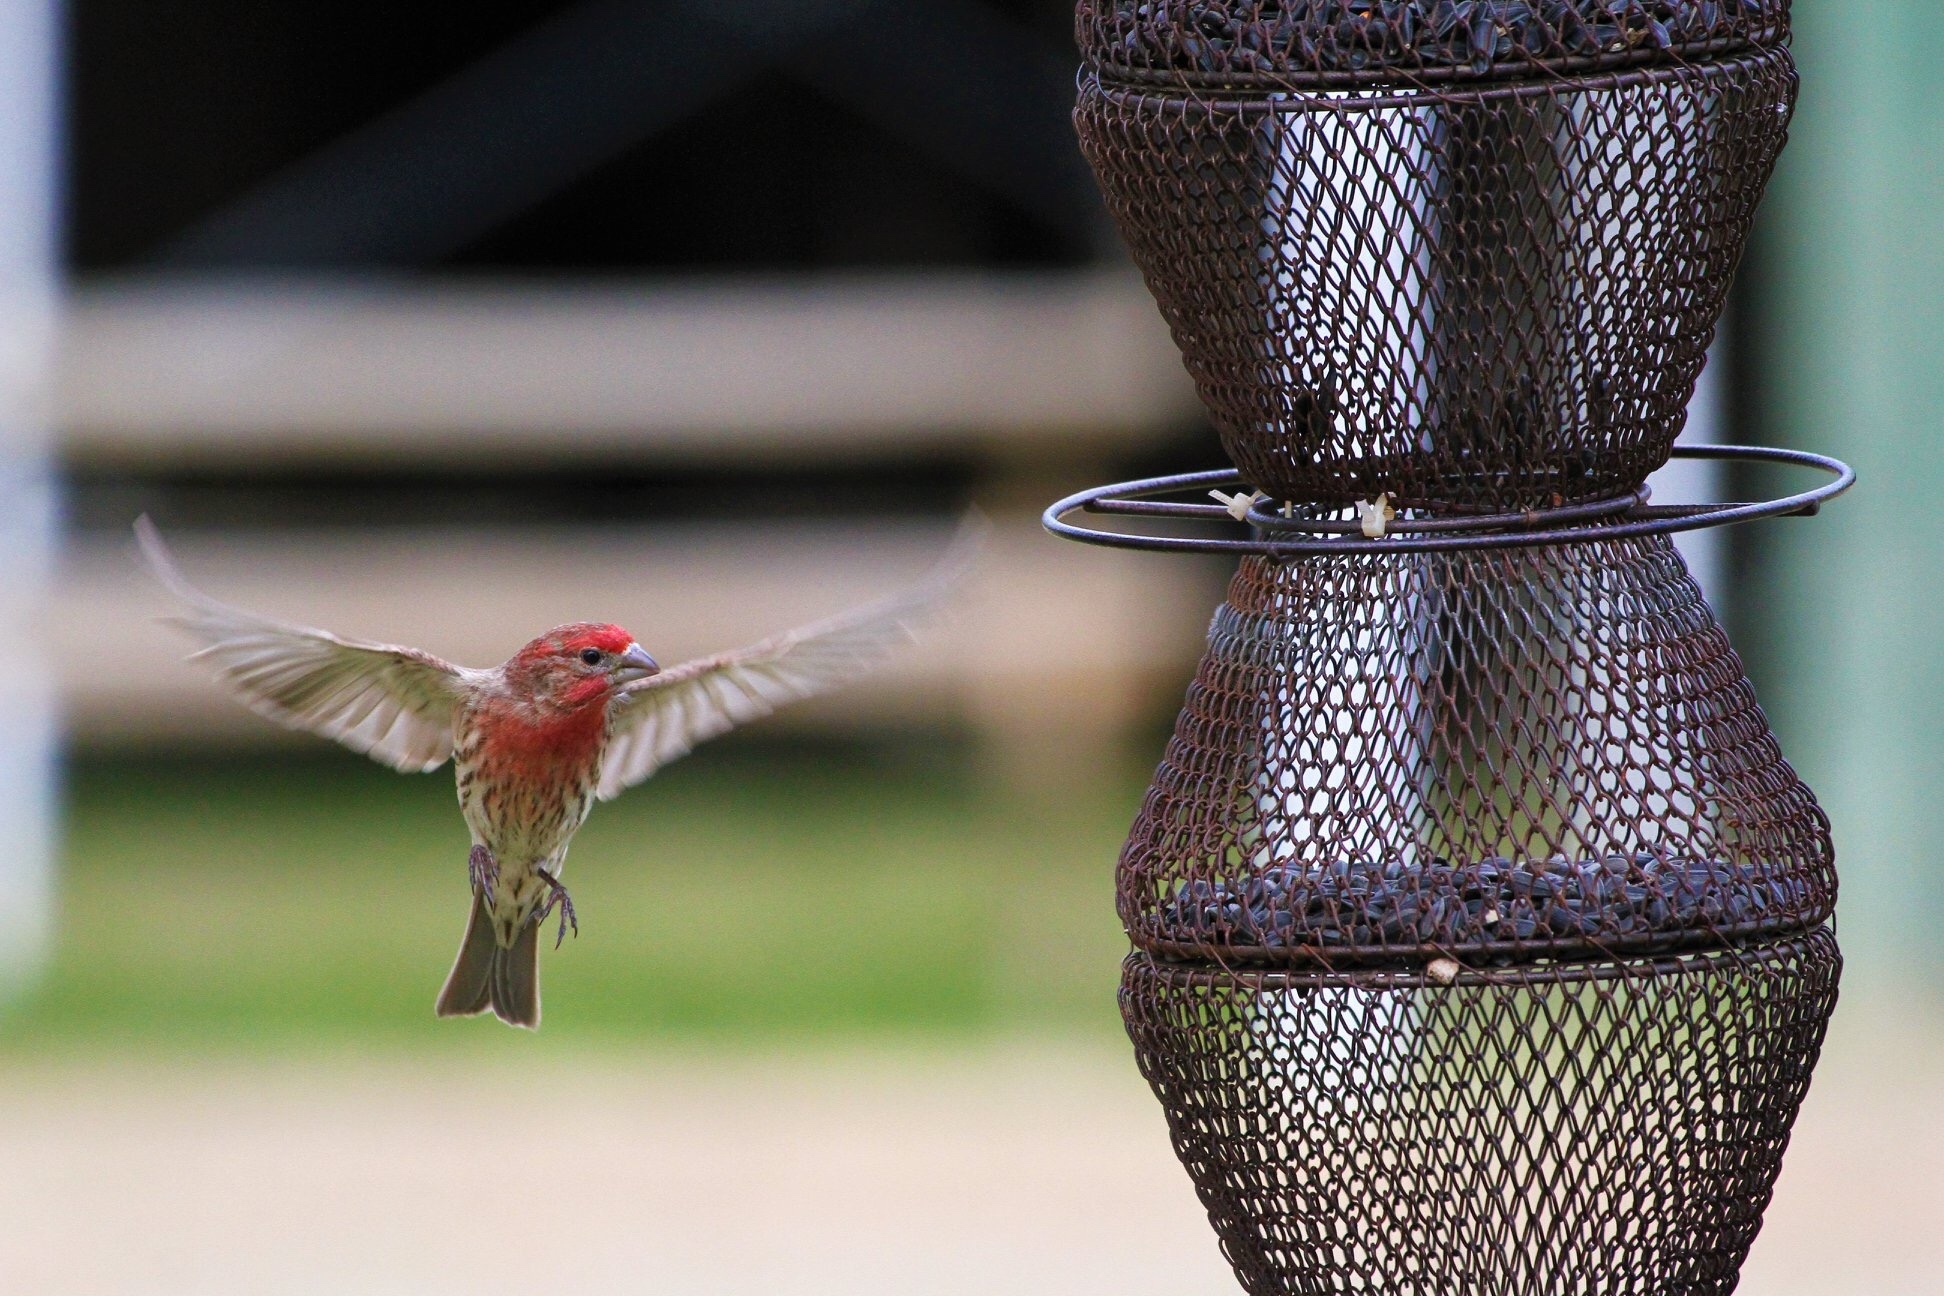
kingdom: Animalia
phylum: Chordata
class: Aves
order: Passeriformes
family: Fringillidae
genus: Haemorhous
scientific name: Haemorhous mexicanus
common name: House finch
